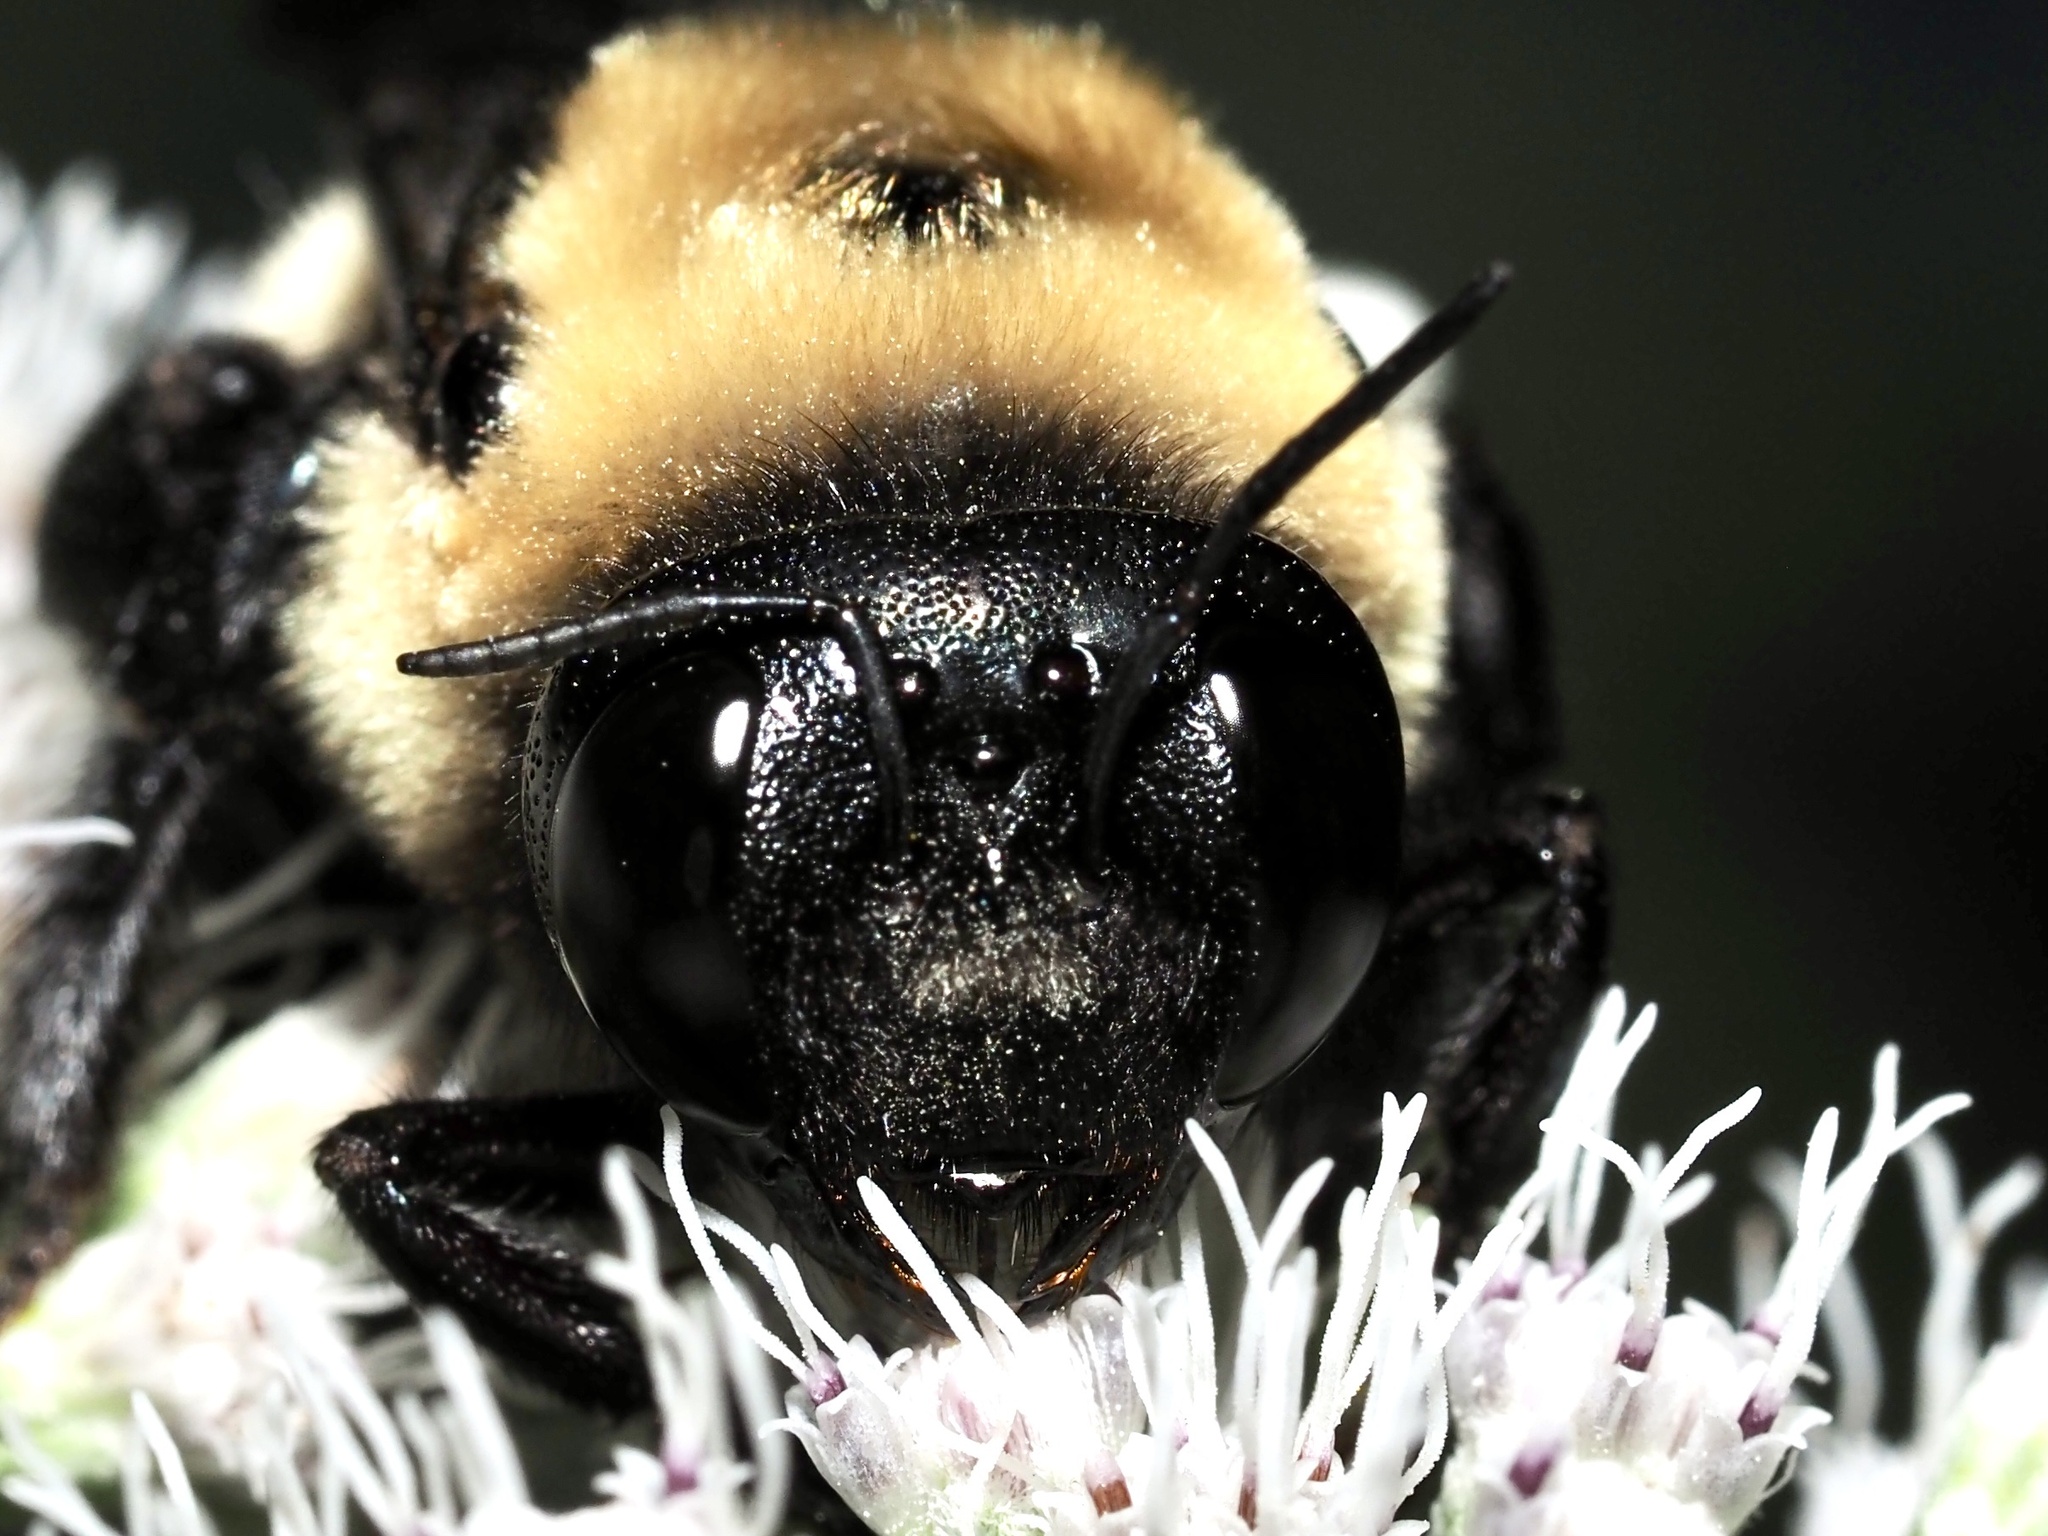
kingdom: Animalia
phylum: Arthropoda
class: Insecta
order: Hymenoptera
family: Apidae
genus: Xylocopa
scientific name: Xylocopa virginica
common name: Carpenter bee
